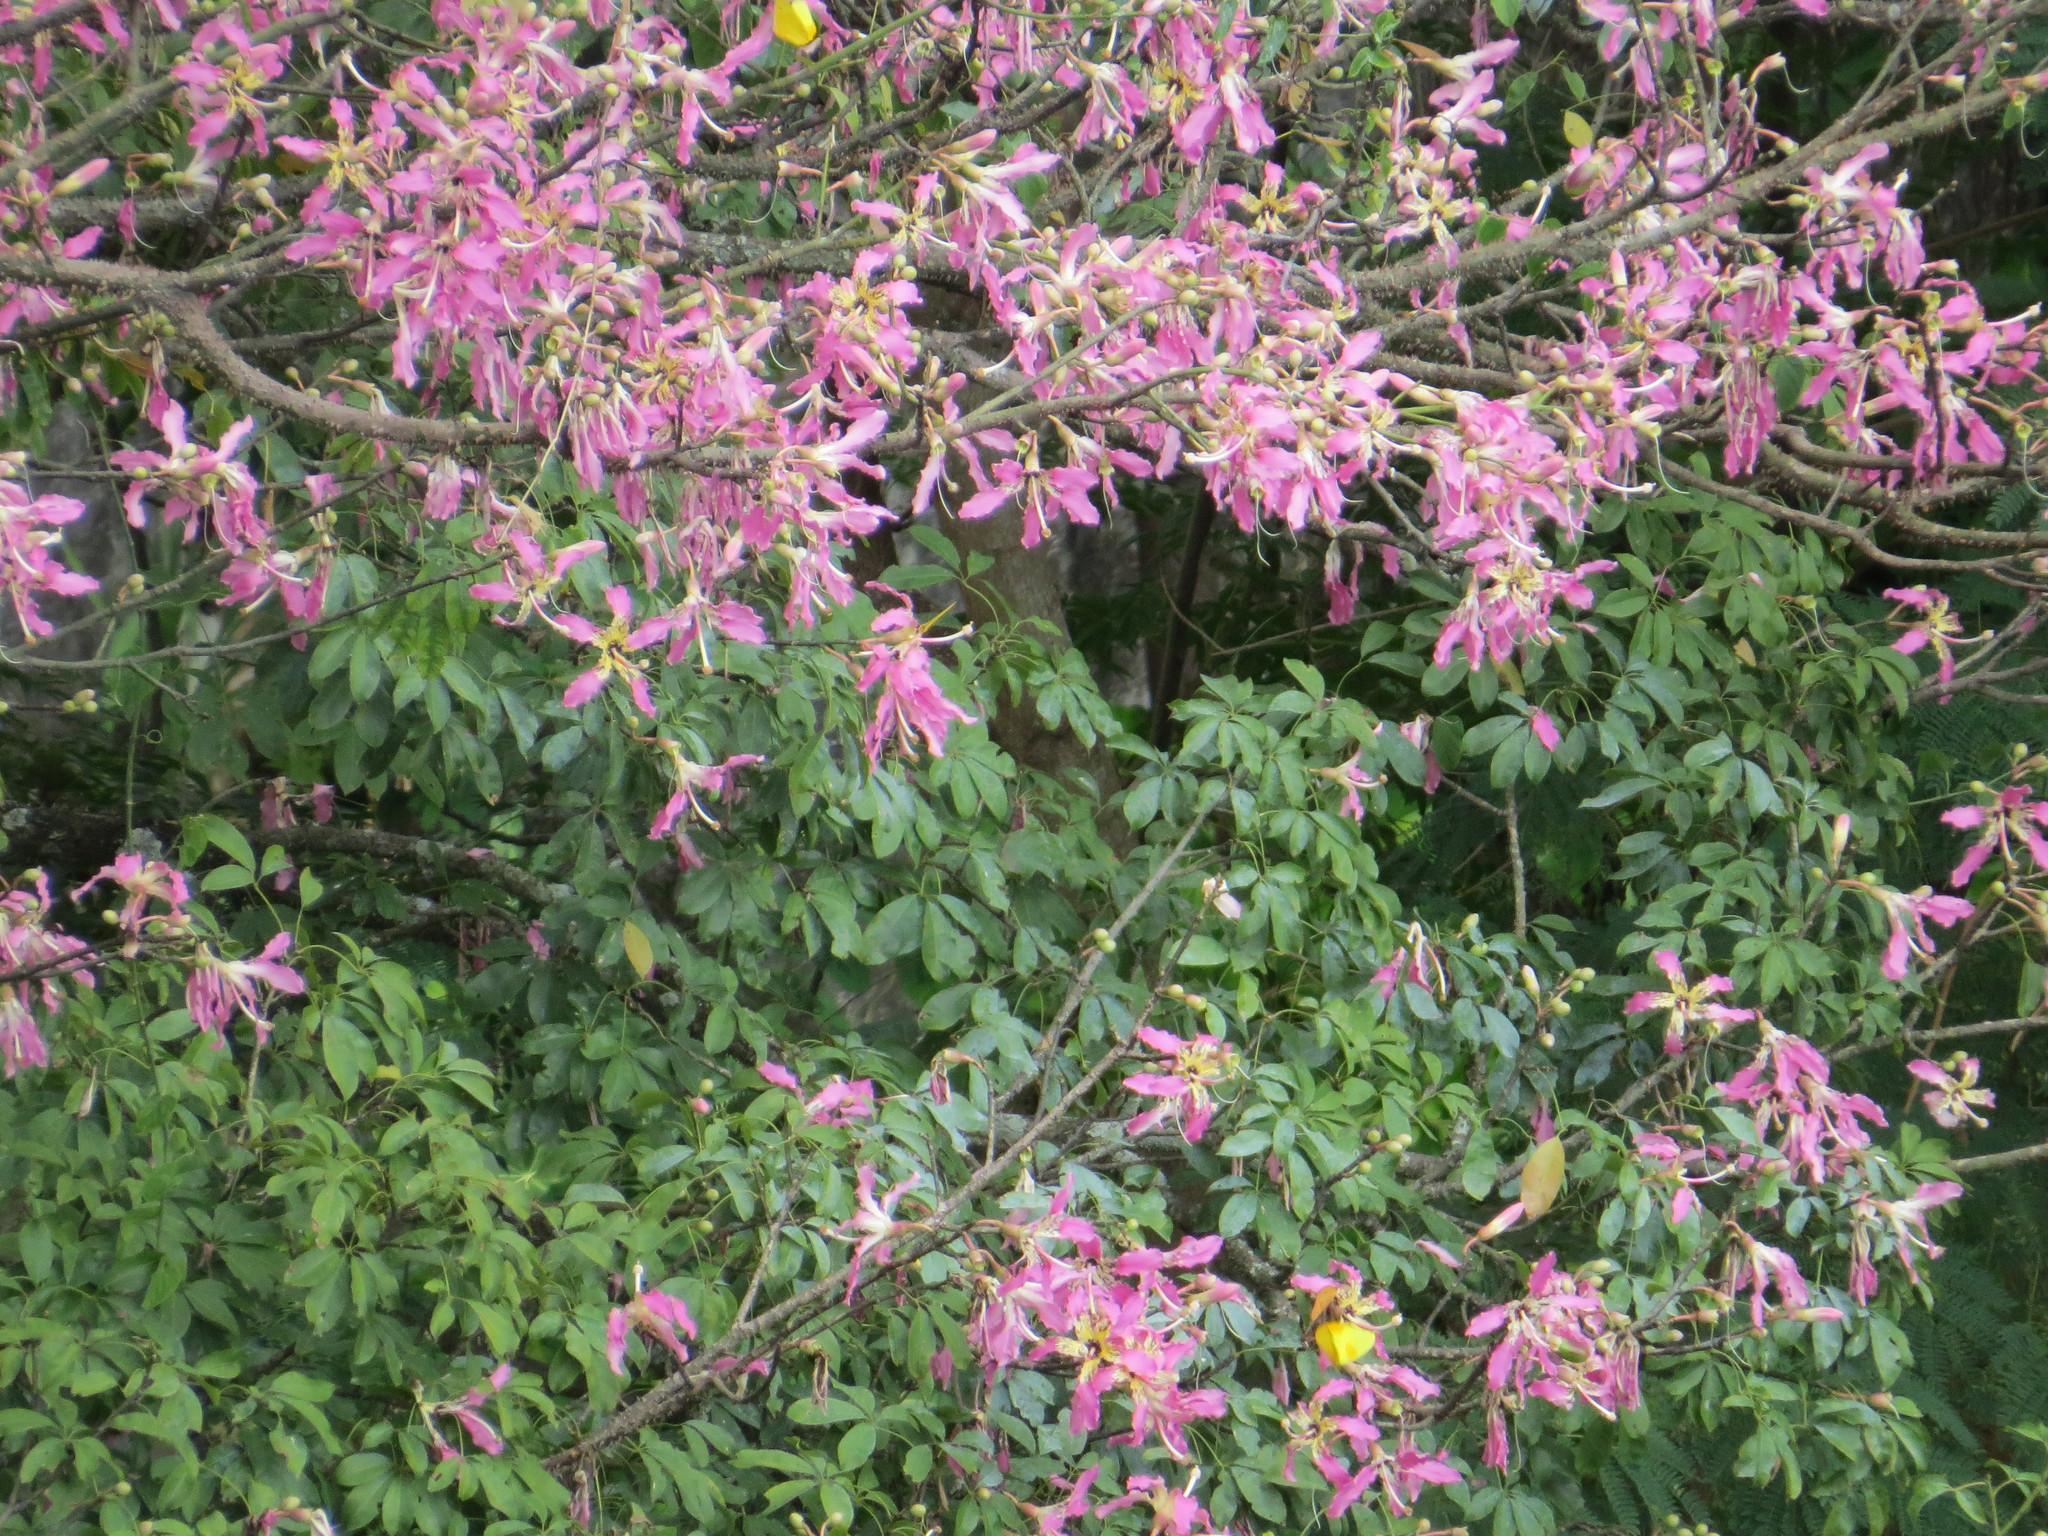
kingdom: Plantae
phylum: Tracheophyta
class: Magnoliopsida
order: Malvales
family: Malvaceae
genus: Ceiba
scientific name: Ceiba speciosa
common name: Silk-floss tree
